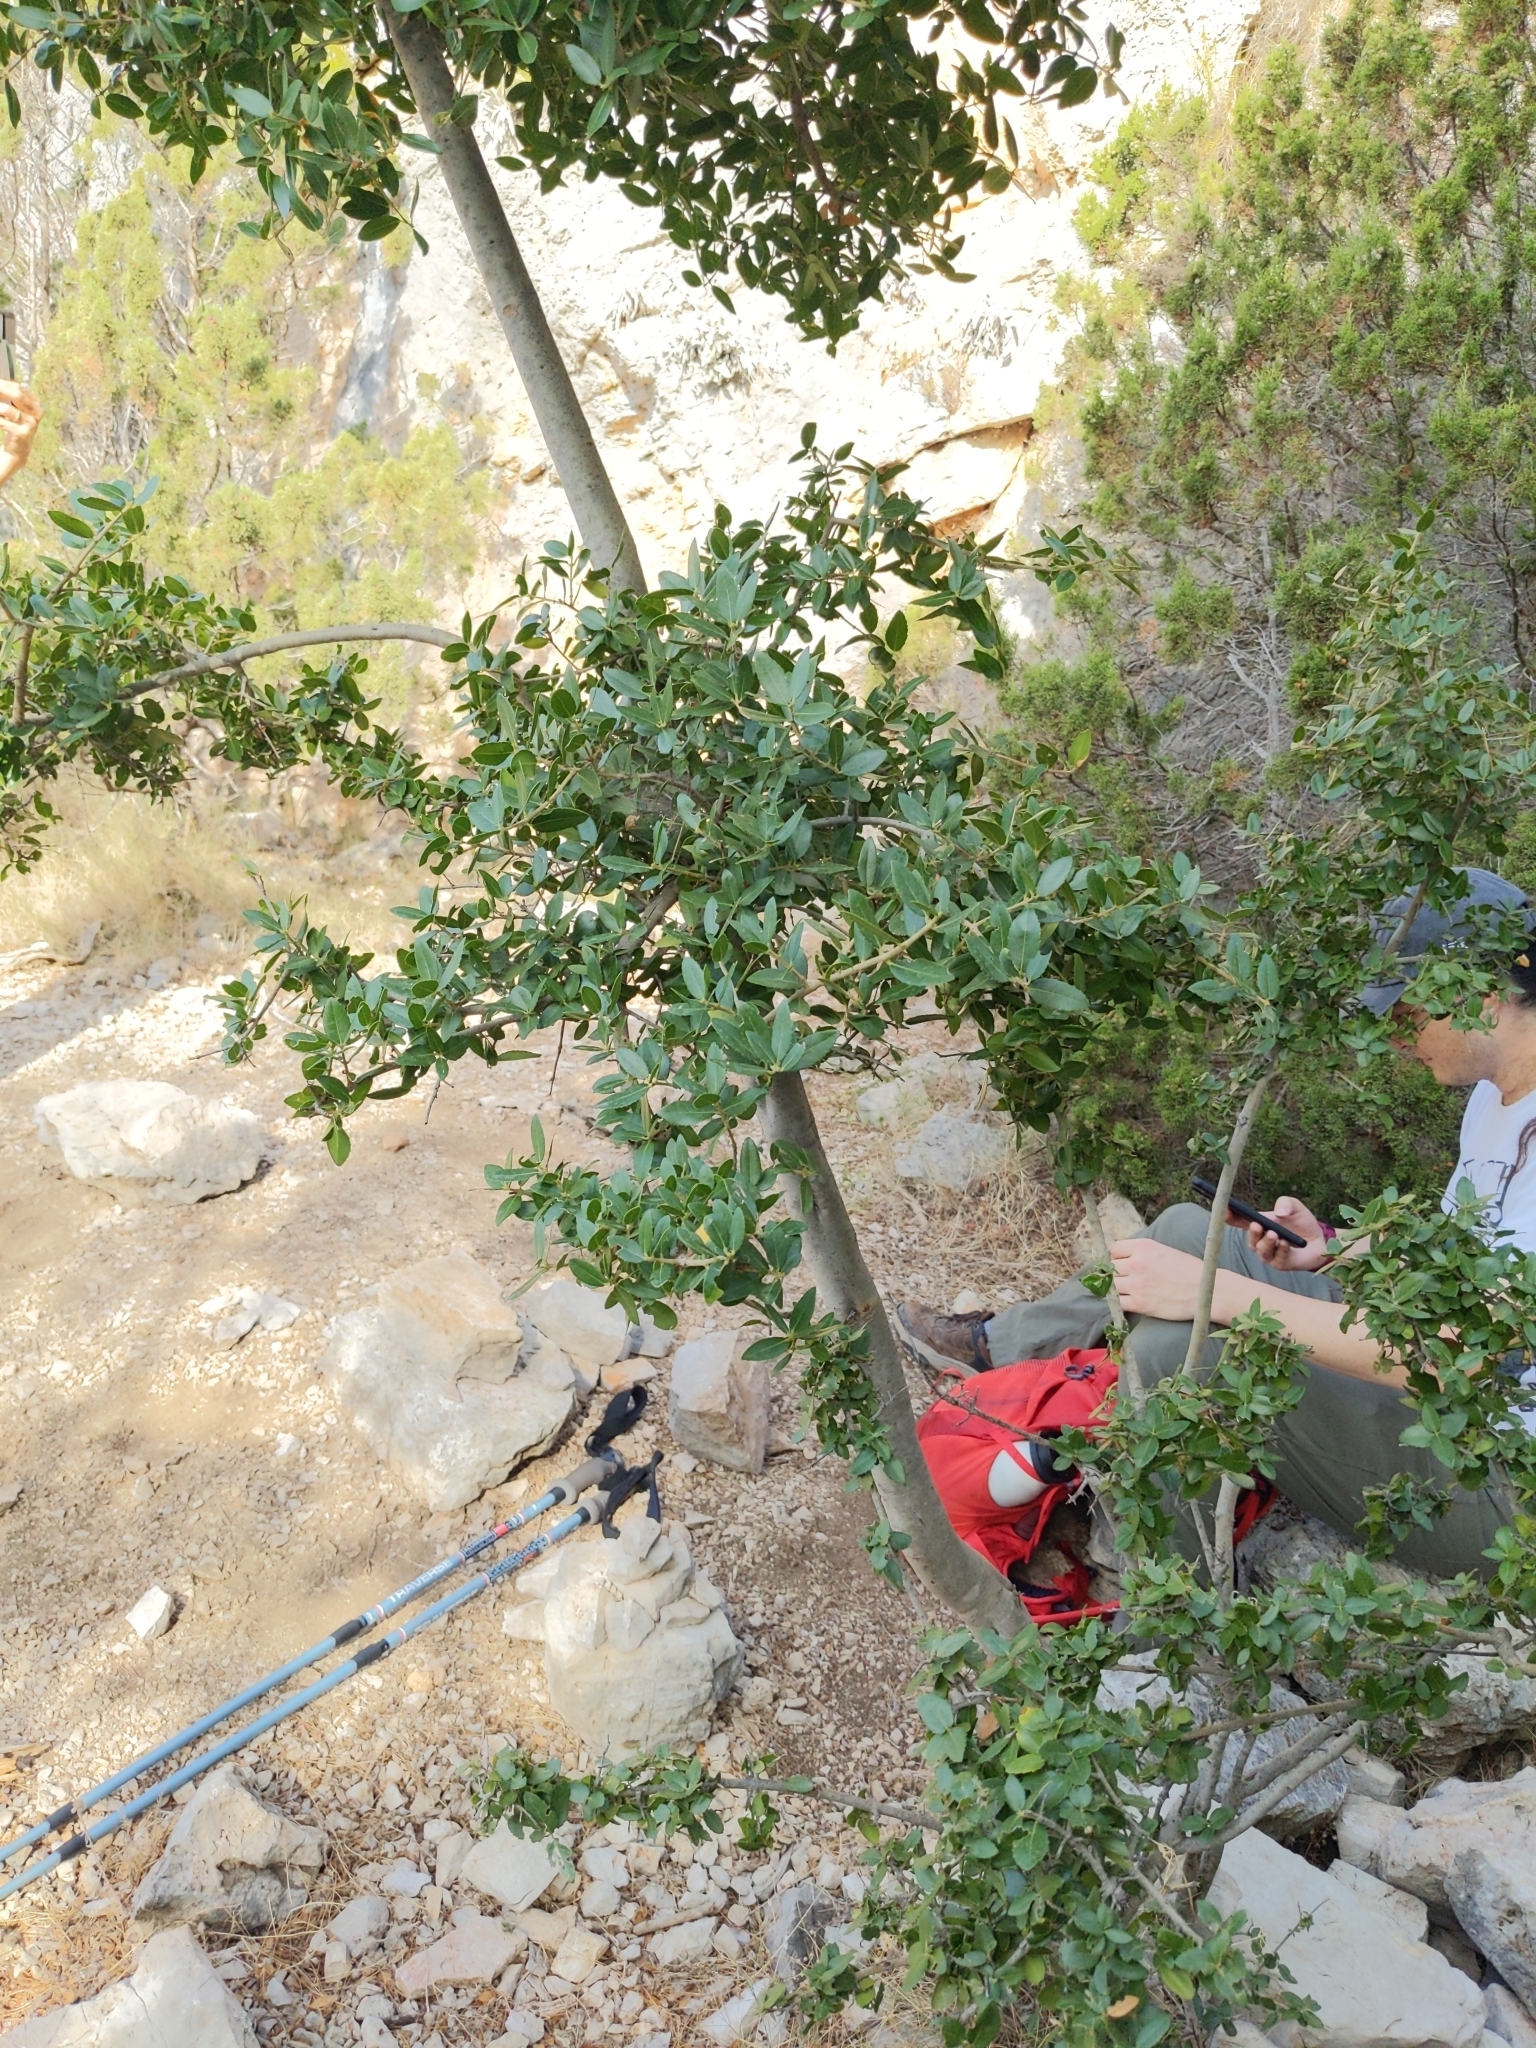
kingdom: Plantae
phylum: Tracheophyta
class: Magnoliopsida
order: Lamiales
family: Oleaceae
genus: Phillyrea
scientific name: Phillyrea latifolia
